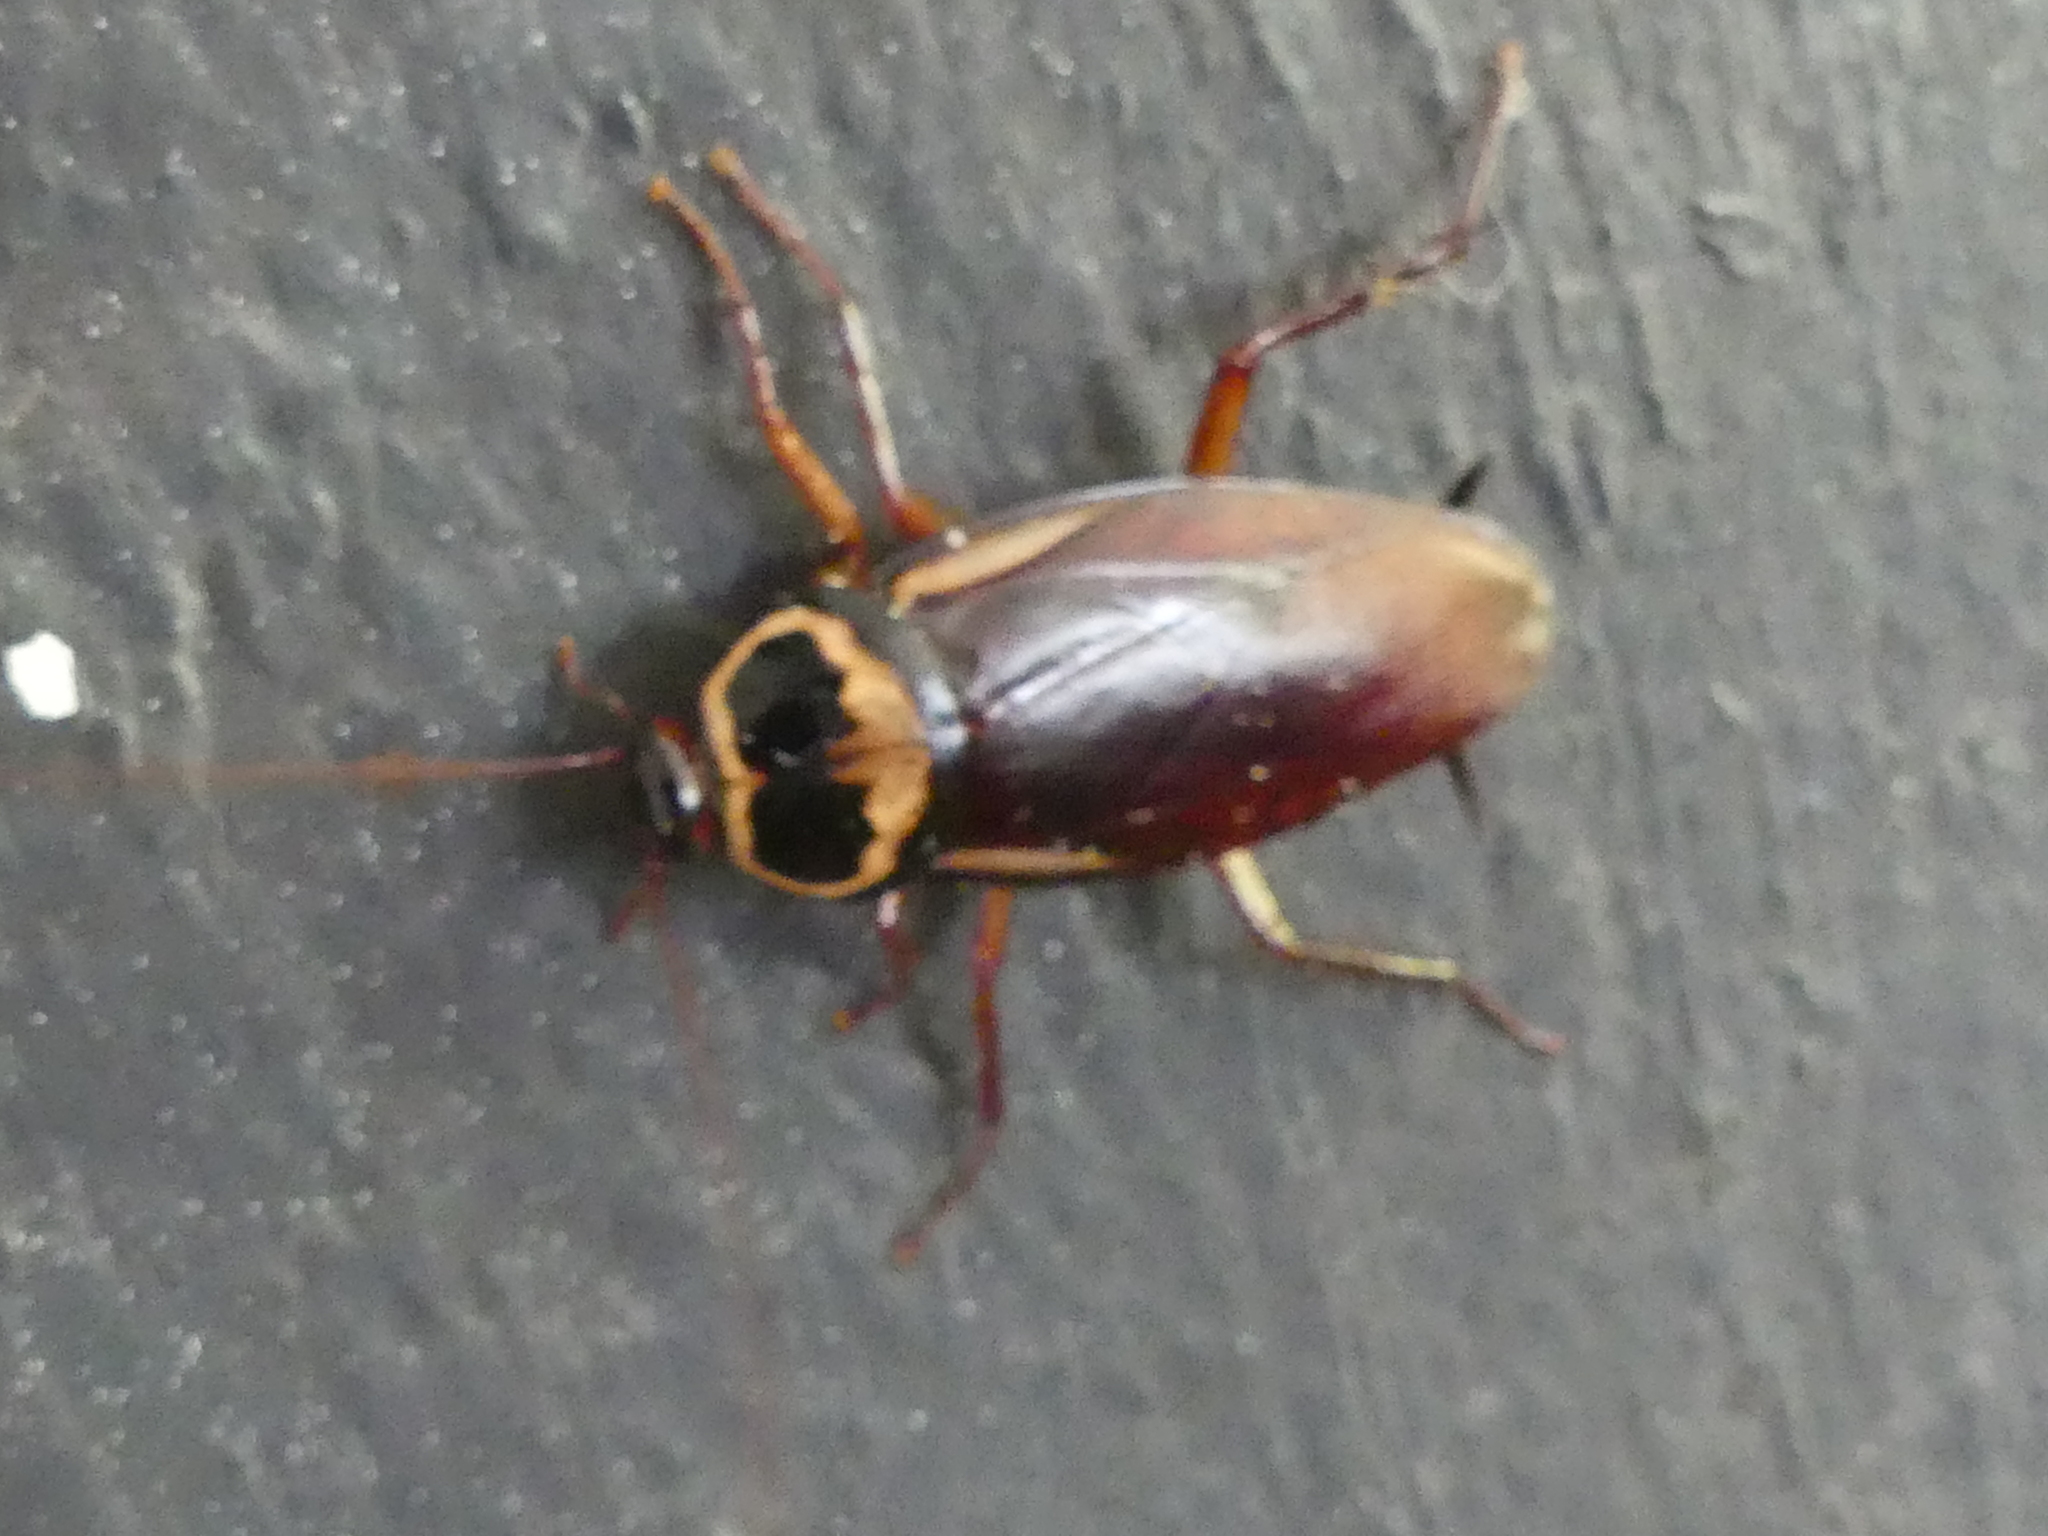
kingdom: Animalia
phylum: Arthropoda
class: Insecta
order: Blattodea
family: Blattidae
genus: Periplaneta
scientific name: Periplaneta australasiae
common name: Australian cockroach
